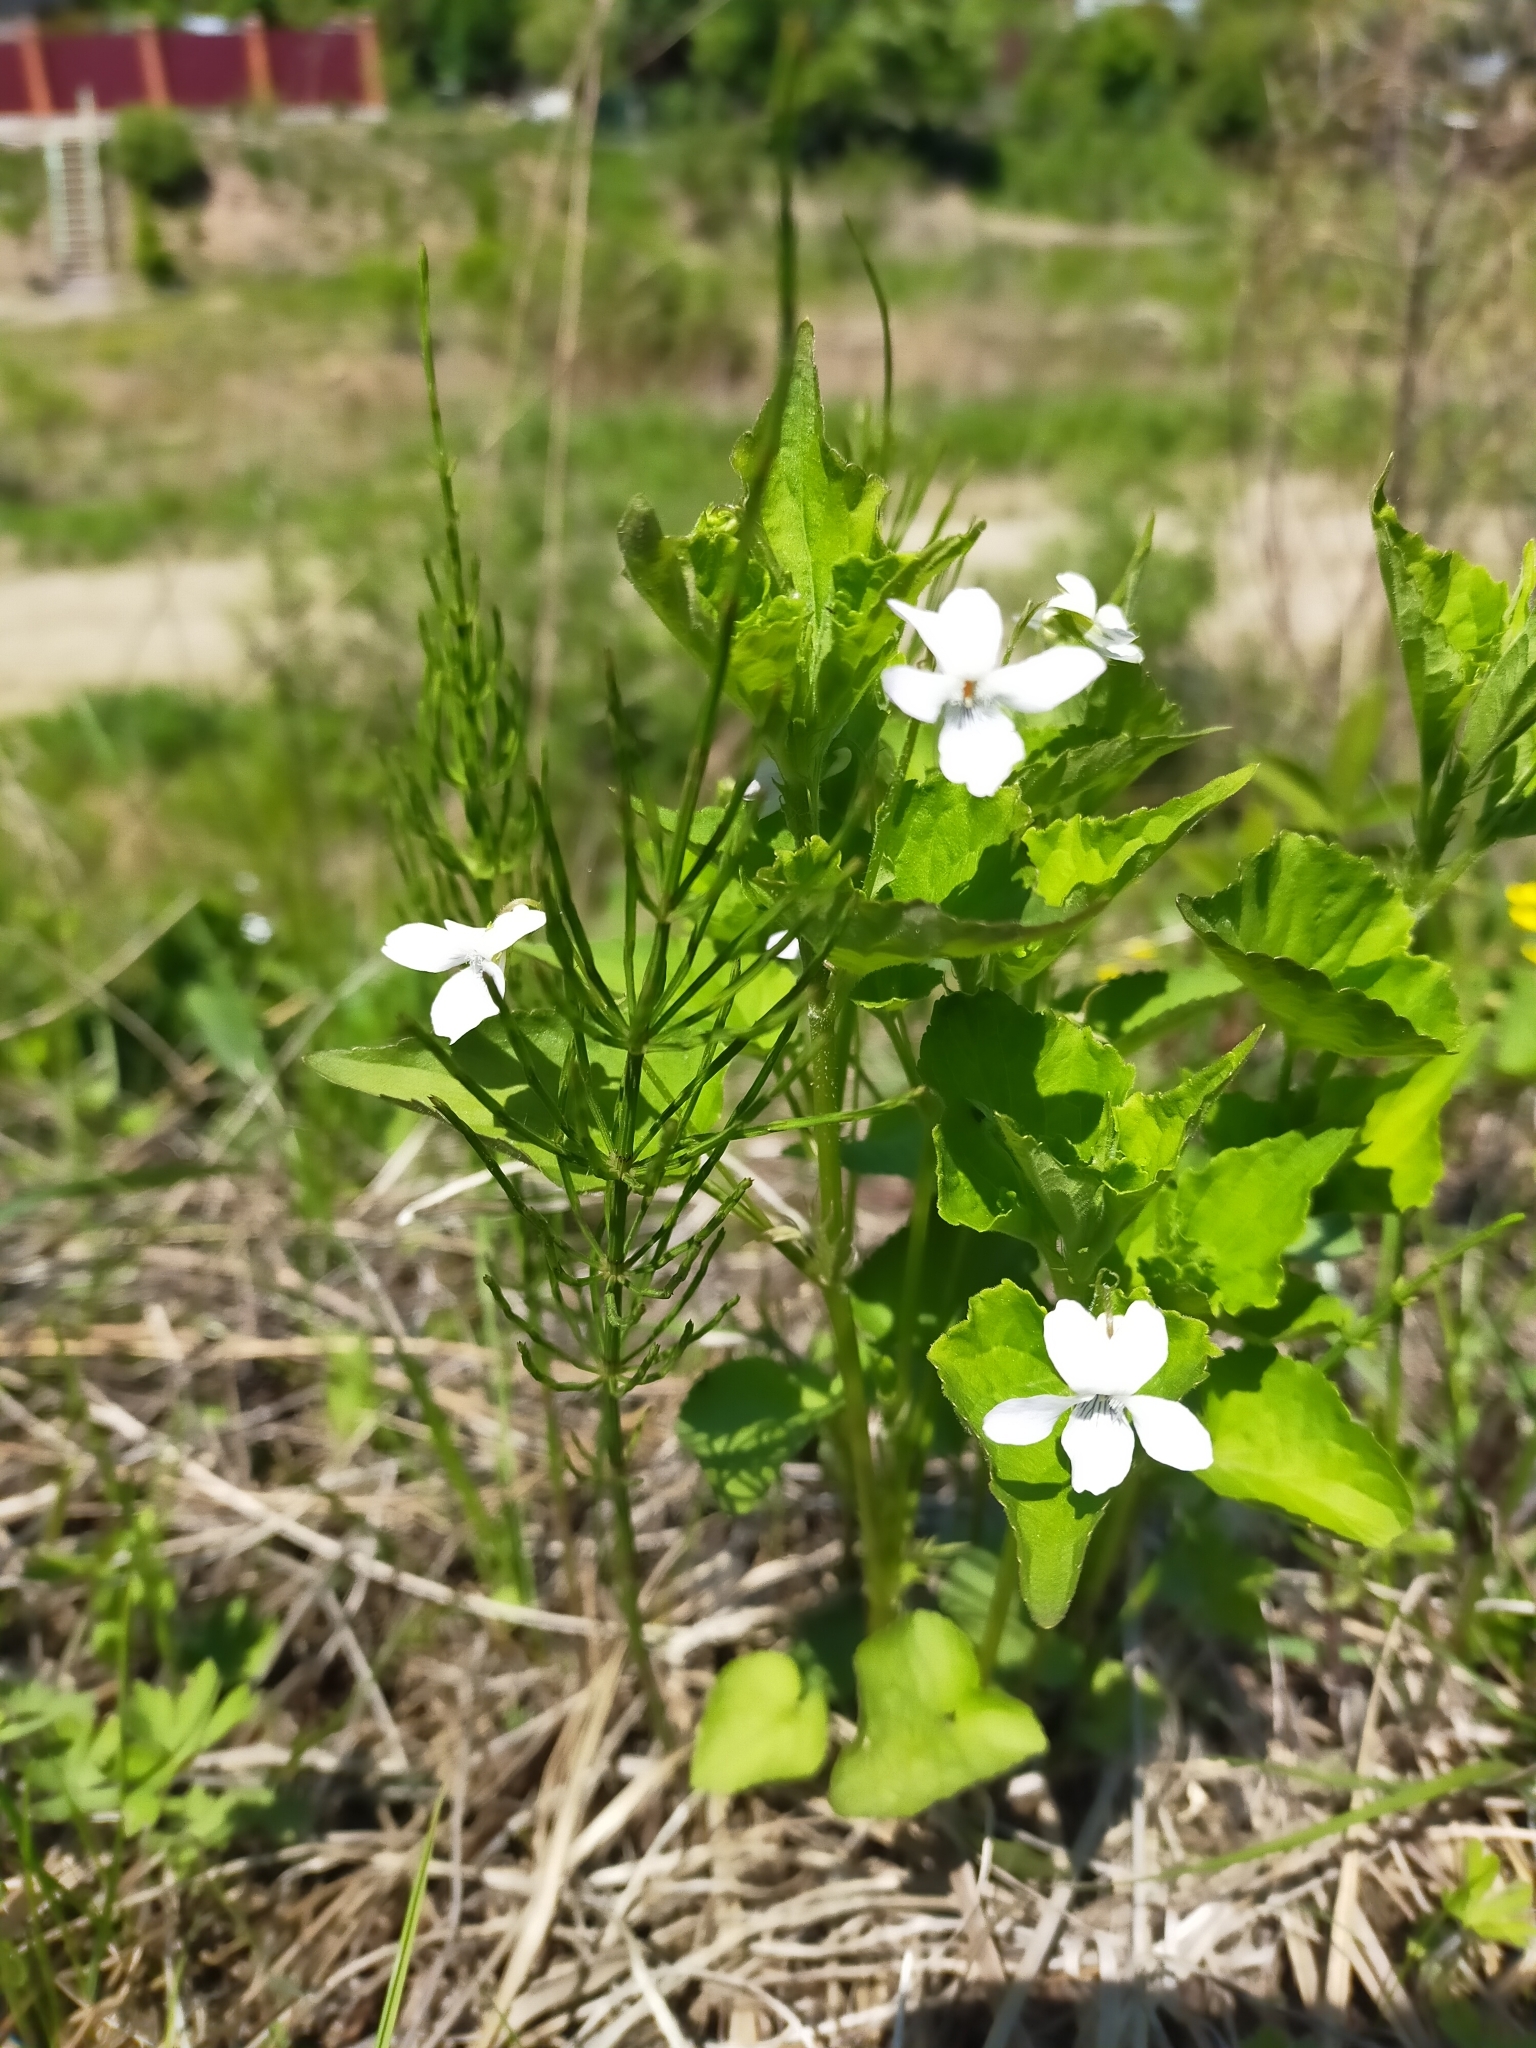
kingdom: Plantae
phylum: Tracheophyta
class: Magnoliopsida
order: Malpighiales
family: Violaceae
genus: Viola
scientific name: Viola acuminata
